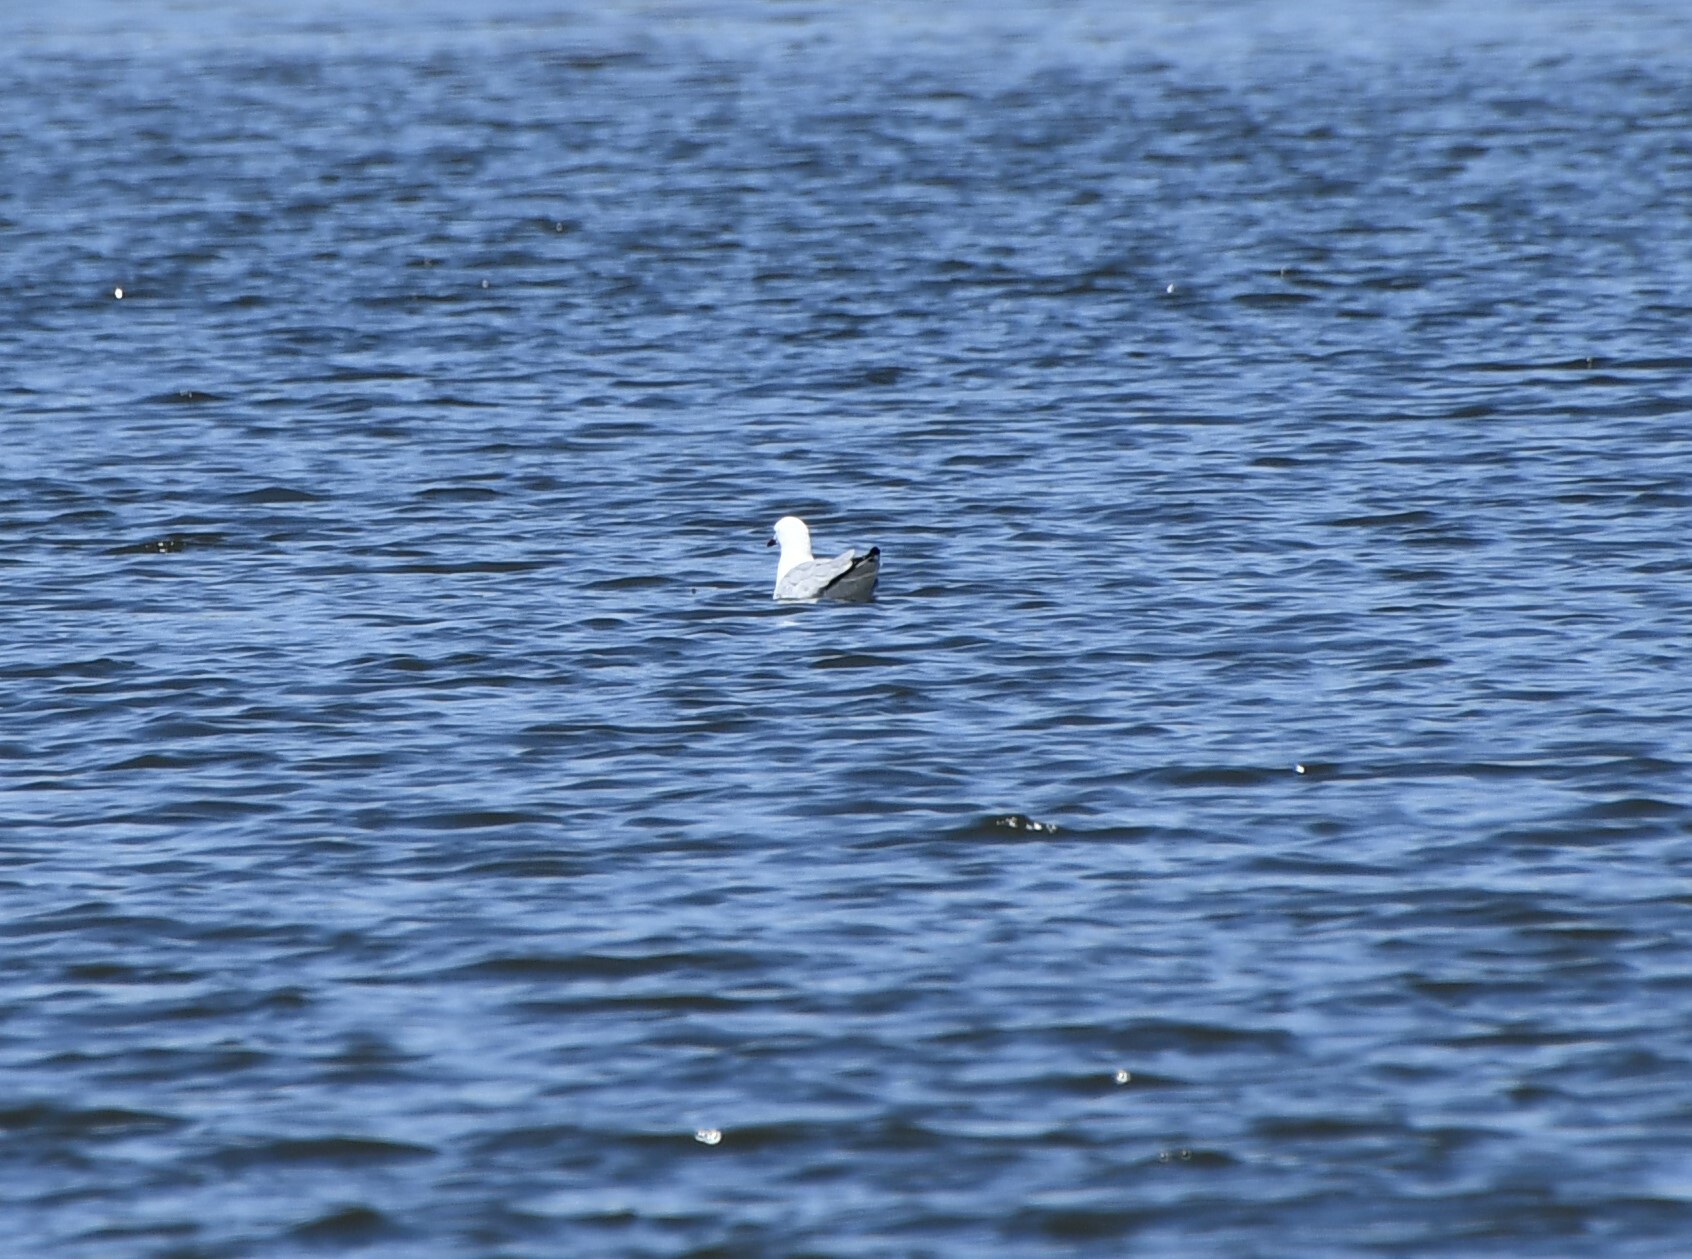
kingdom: Animalia
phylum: Chordata
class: Aves
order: Charadriiformes
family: Laridae
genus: Chroicocephalus
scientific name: Chroicocephalus novaehollandiae
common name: Silver gull
